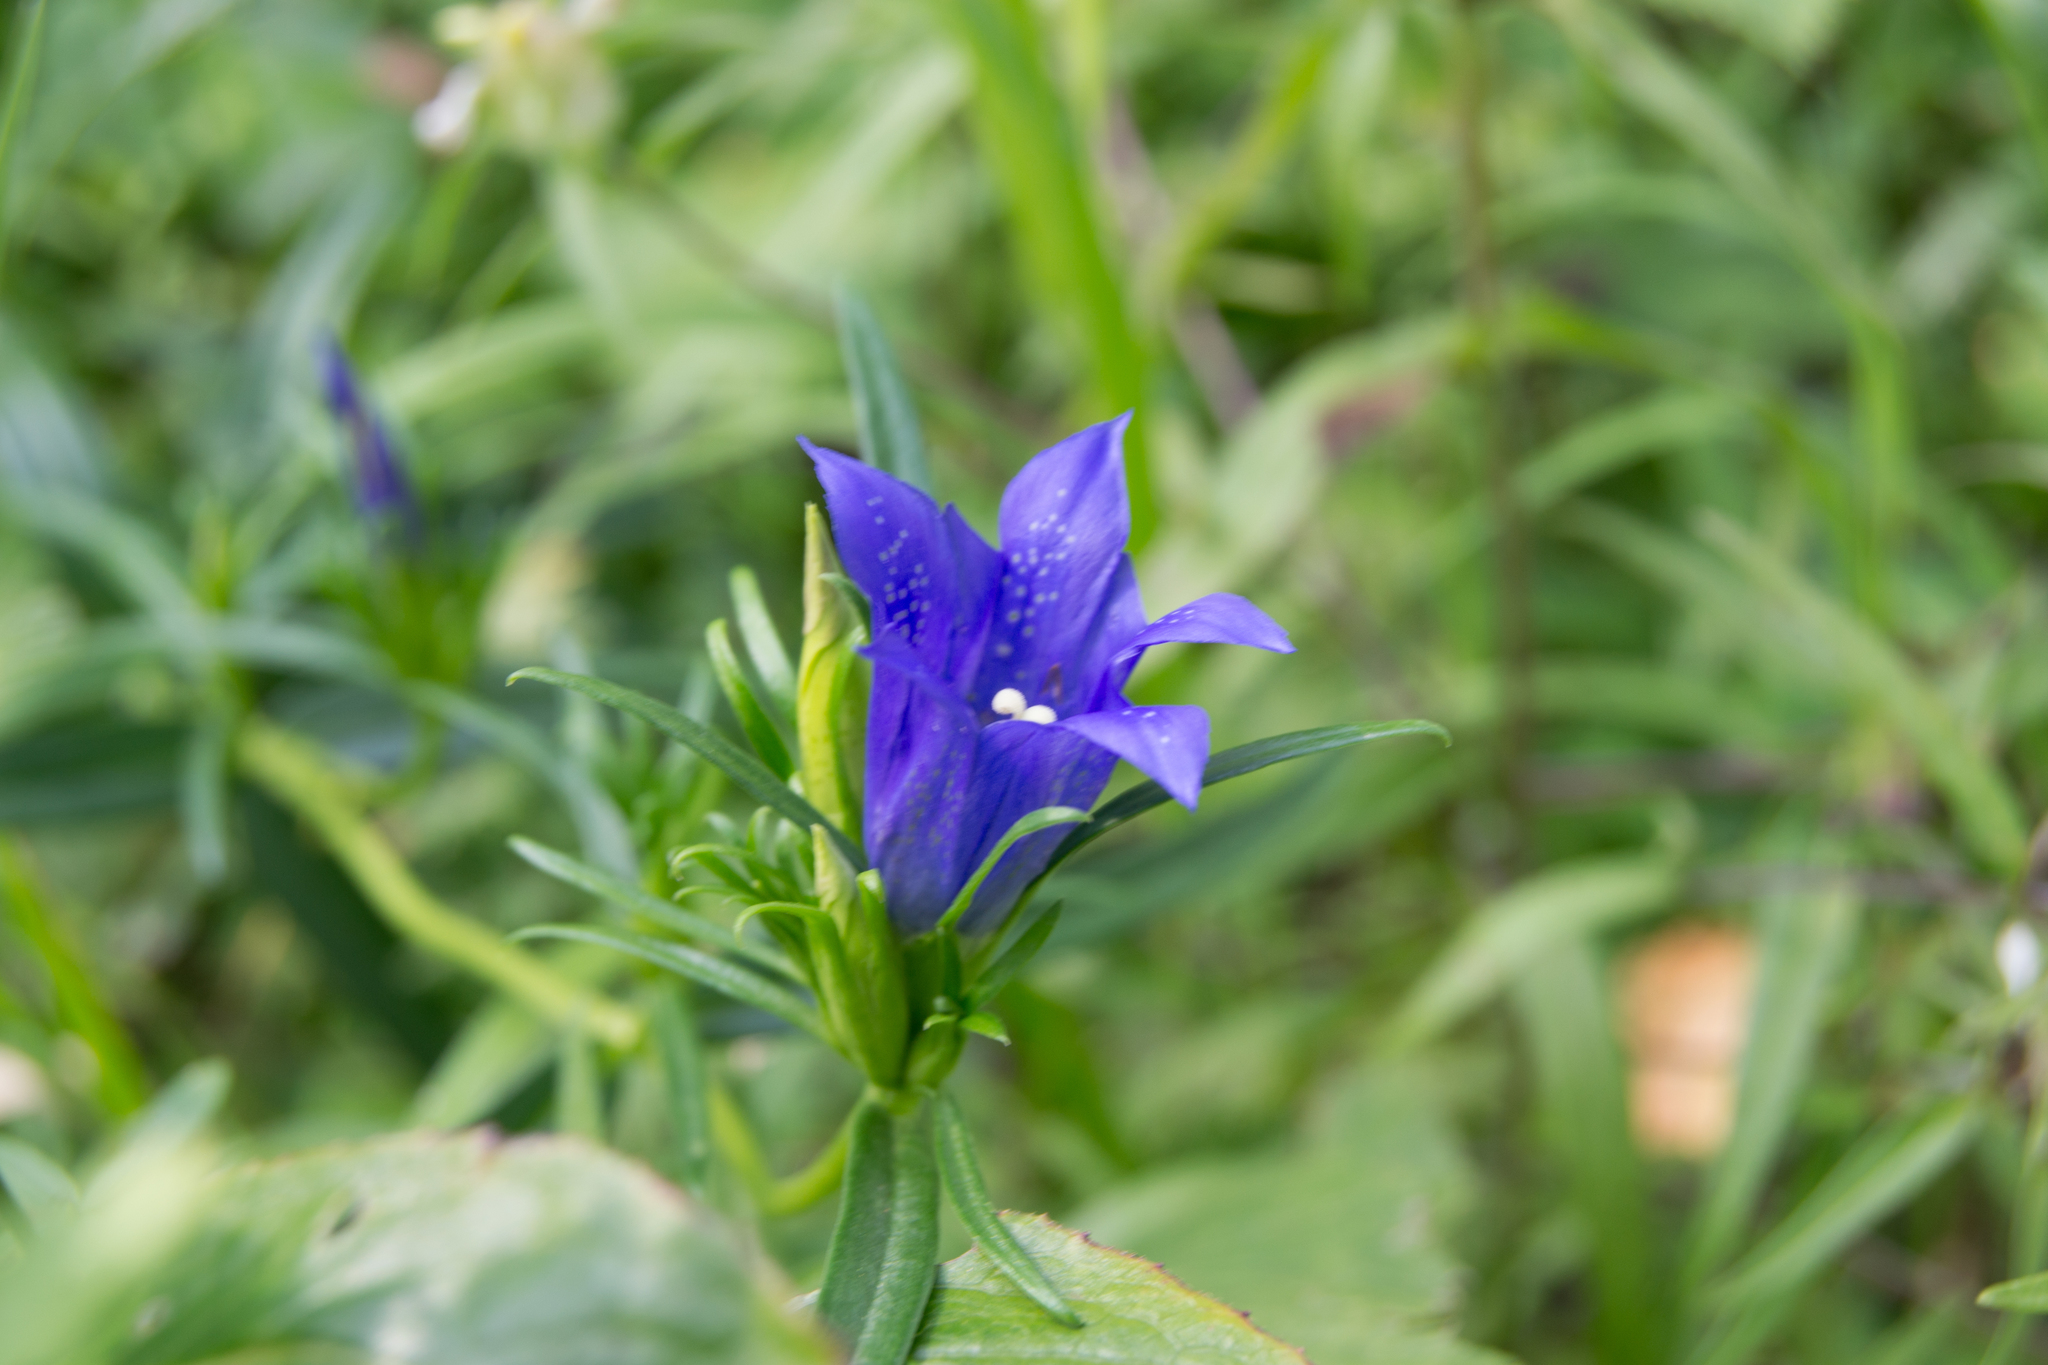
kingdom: Plantae
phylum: Tracheophyta
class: Magnoliopsida
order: Gentianales
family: Gentianaceae
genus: Gentiana
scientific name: Gentiana pneumonanthe
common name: Marsh gentian
